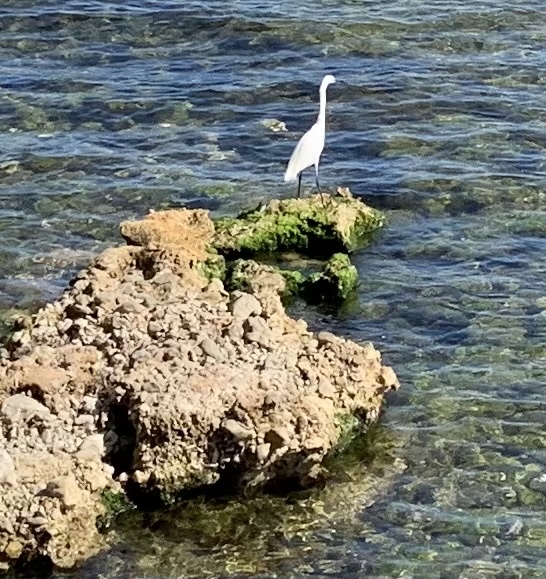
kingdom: Animalia
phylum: Chordata
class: Aves
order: Pelecaniformes
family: Ardeidae
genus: Egretta
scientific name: Egretta garzetta
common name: Little egret
